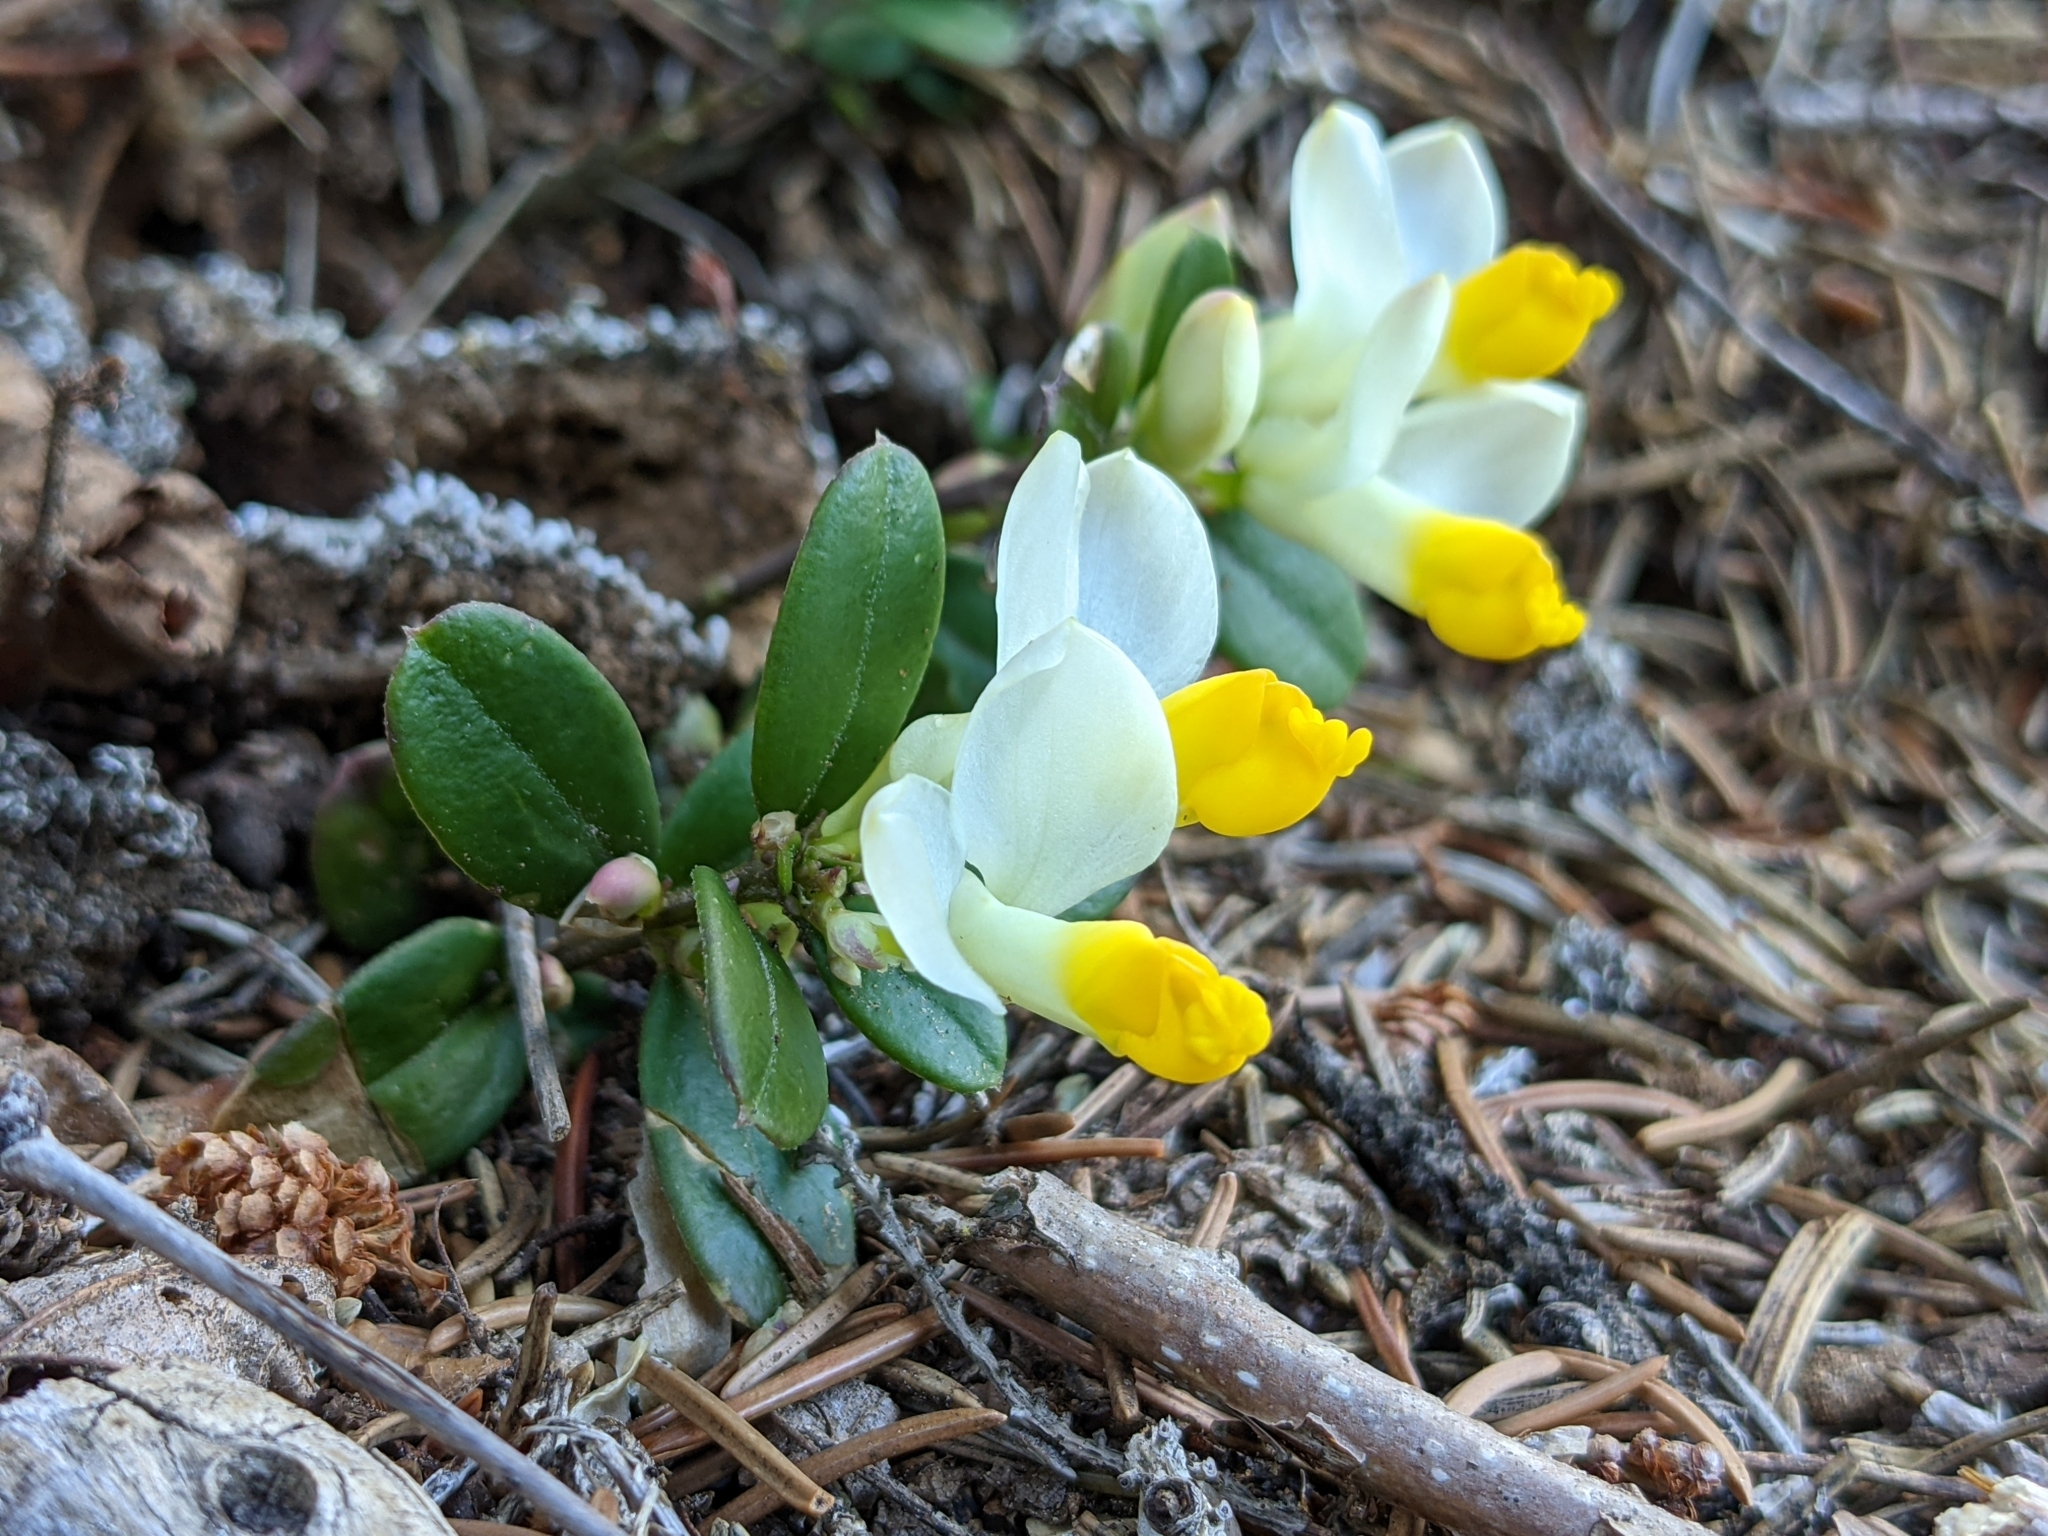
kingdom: Plantae
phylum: Tracheophyta
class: Magnoliopsida
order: Fabales
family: Polygalaceae
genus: Polygaloides
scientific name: Polygaloides chamaebuxus
